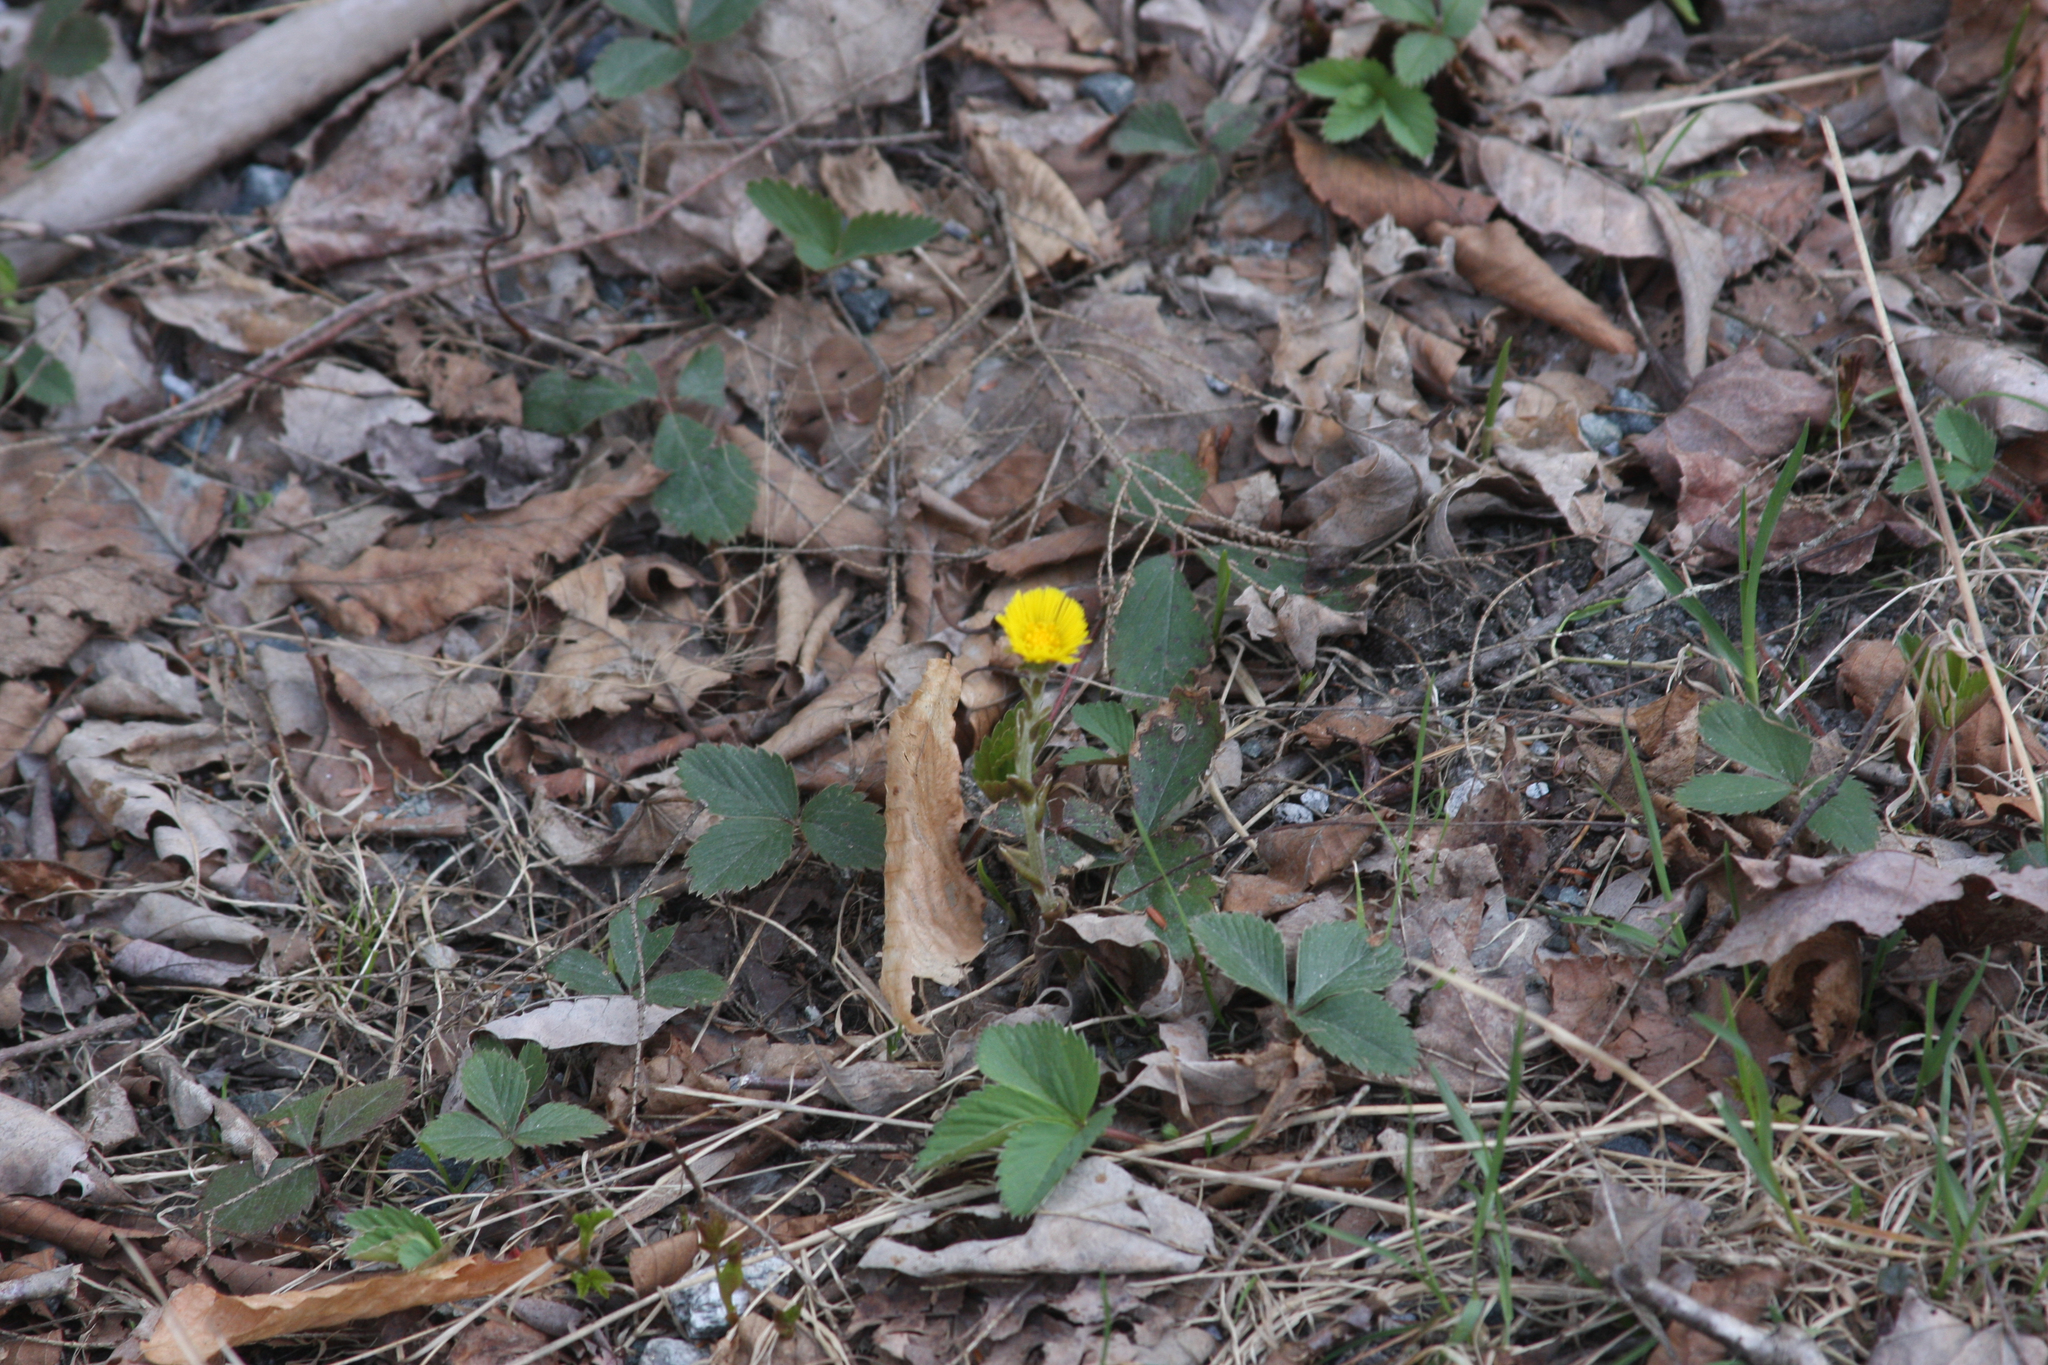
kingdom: Plantae
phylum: Tracheophyta
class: Magnoliopsida
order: Asterales
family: Asteraceae
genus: Tussilago
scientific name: Tussilago farfara
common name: Coltsfoot
